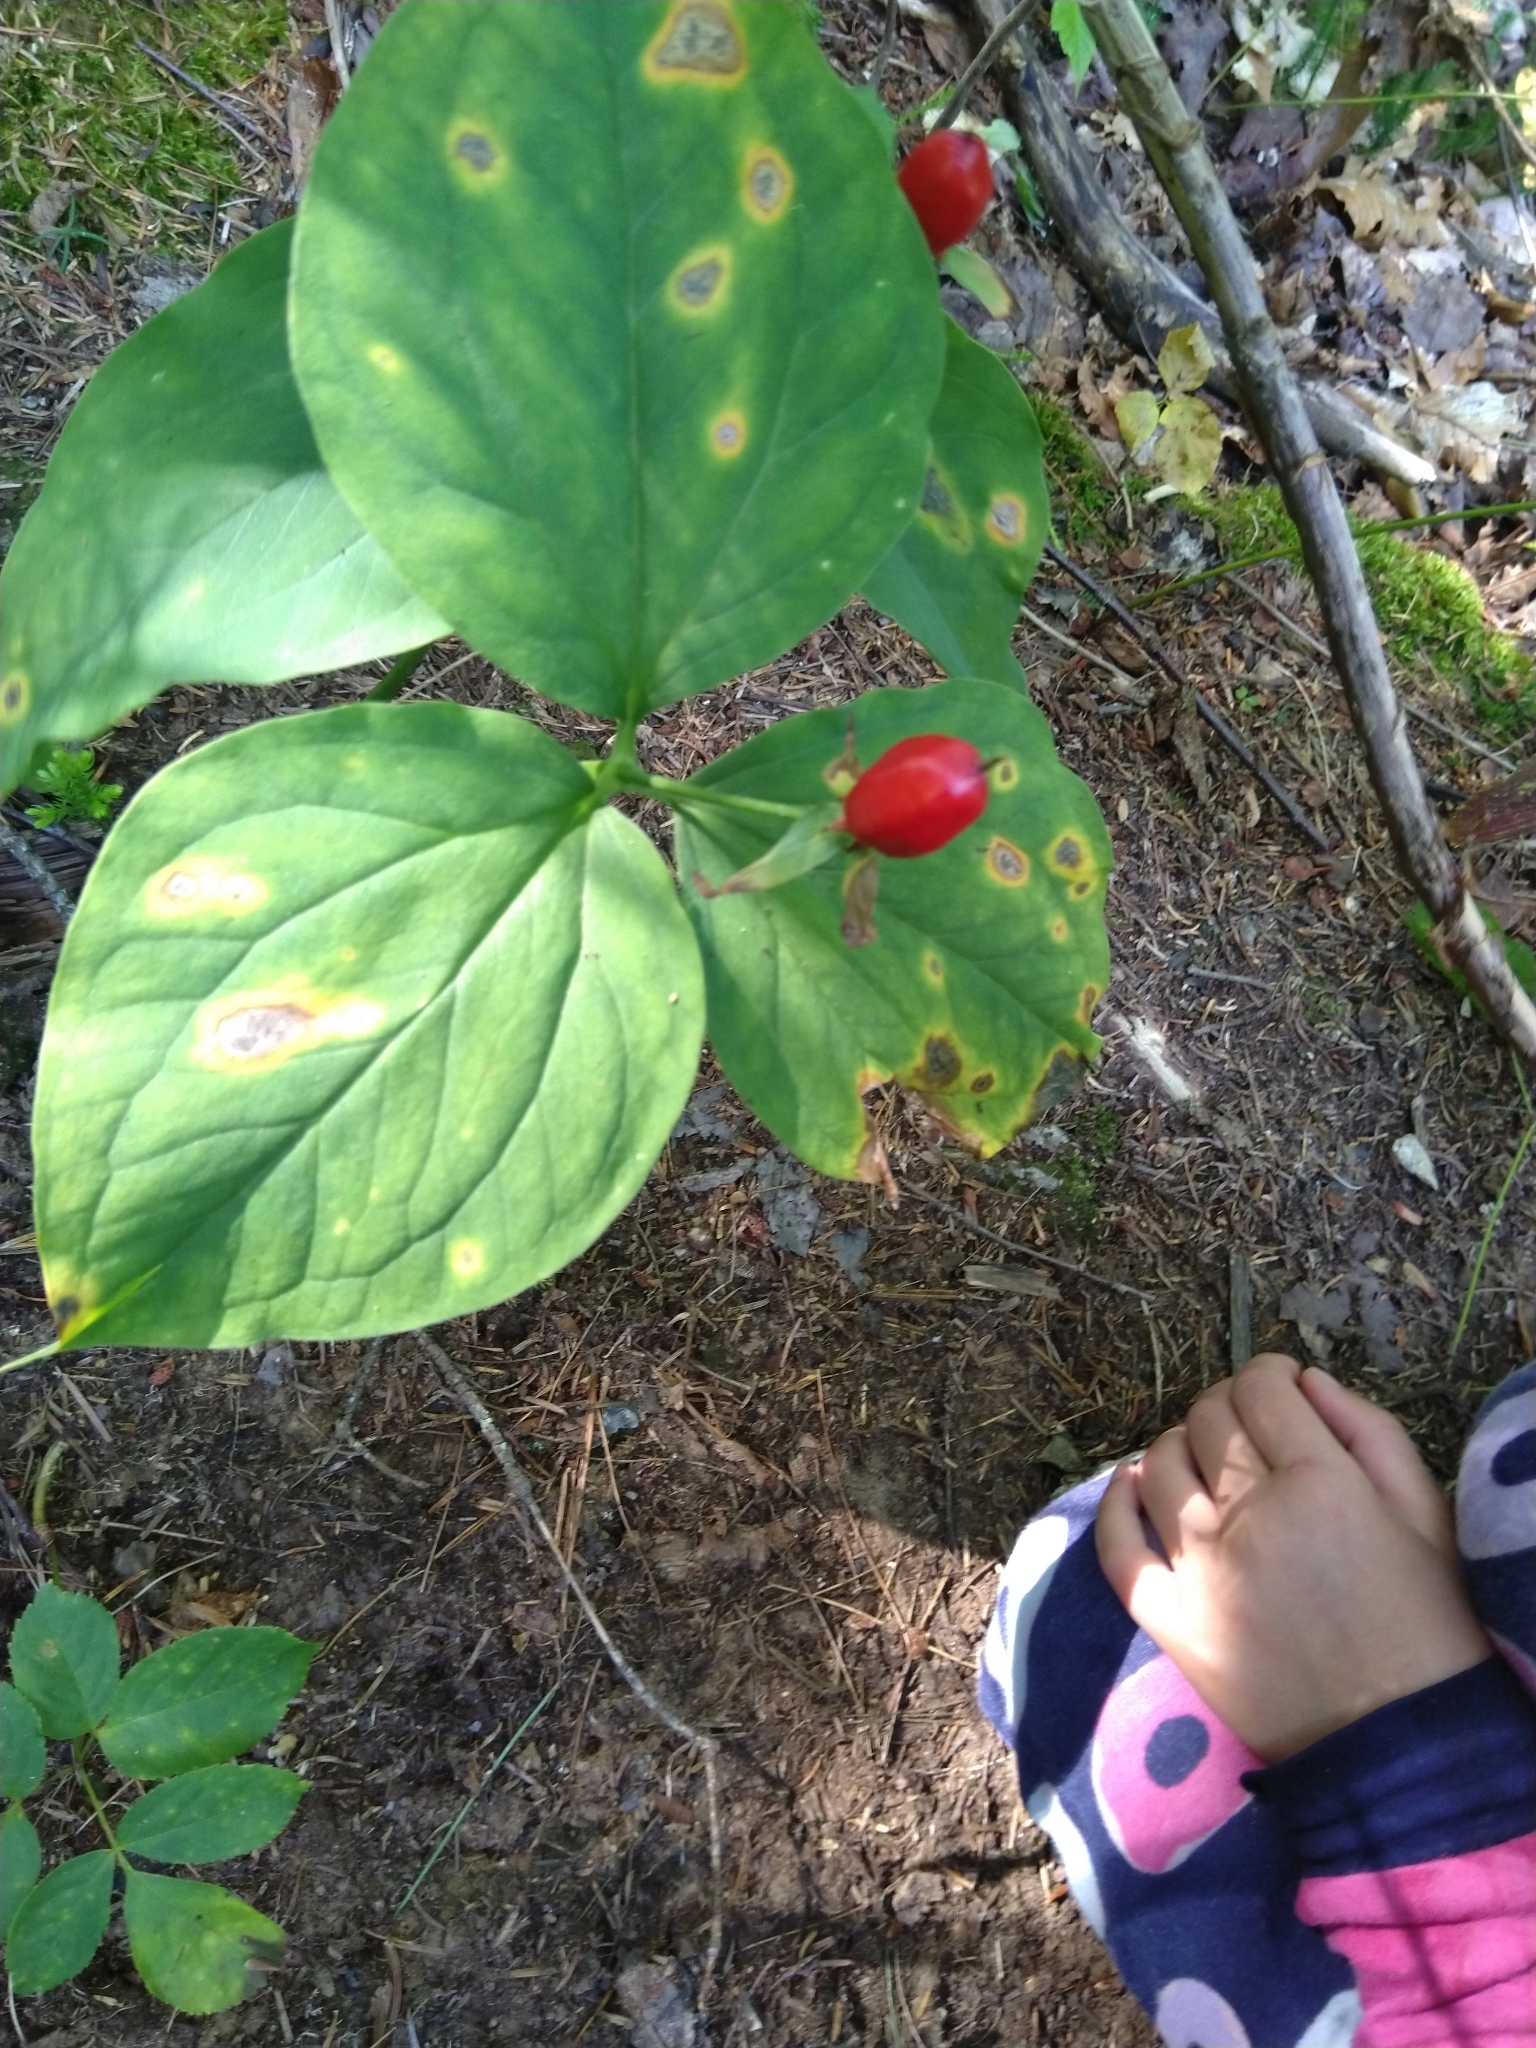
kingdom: Plantae
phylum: Tracheophyta
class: Liliopsida
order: Liliales
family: Melanthiaceae
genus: Trillium
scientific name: Trillium undulatum
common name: Paint trillium
